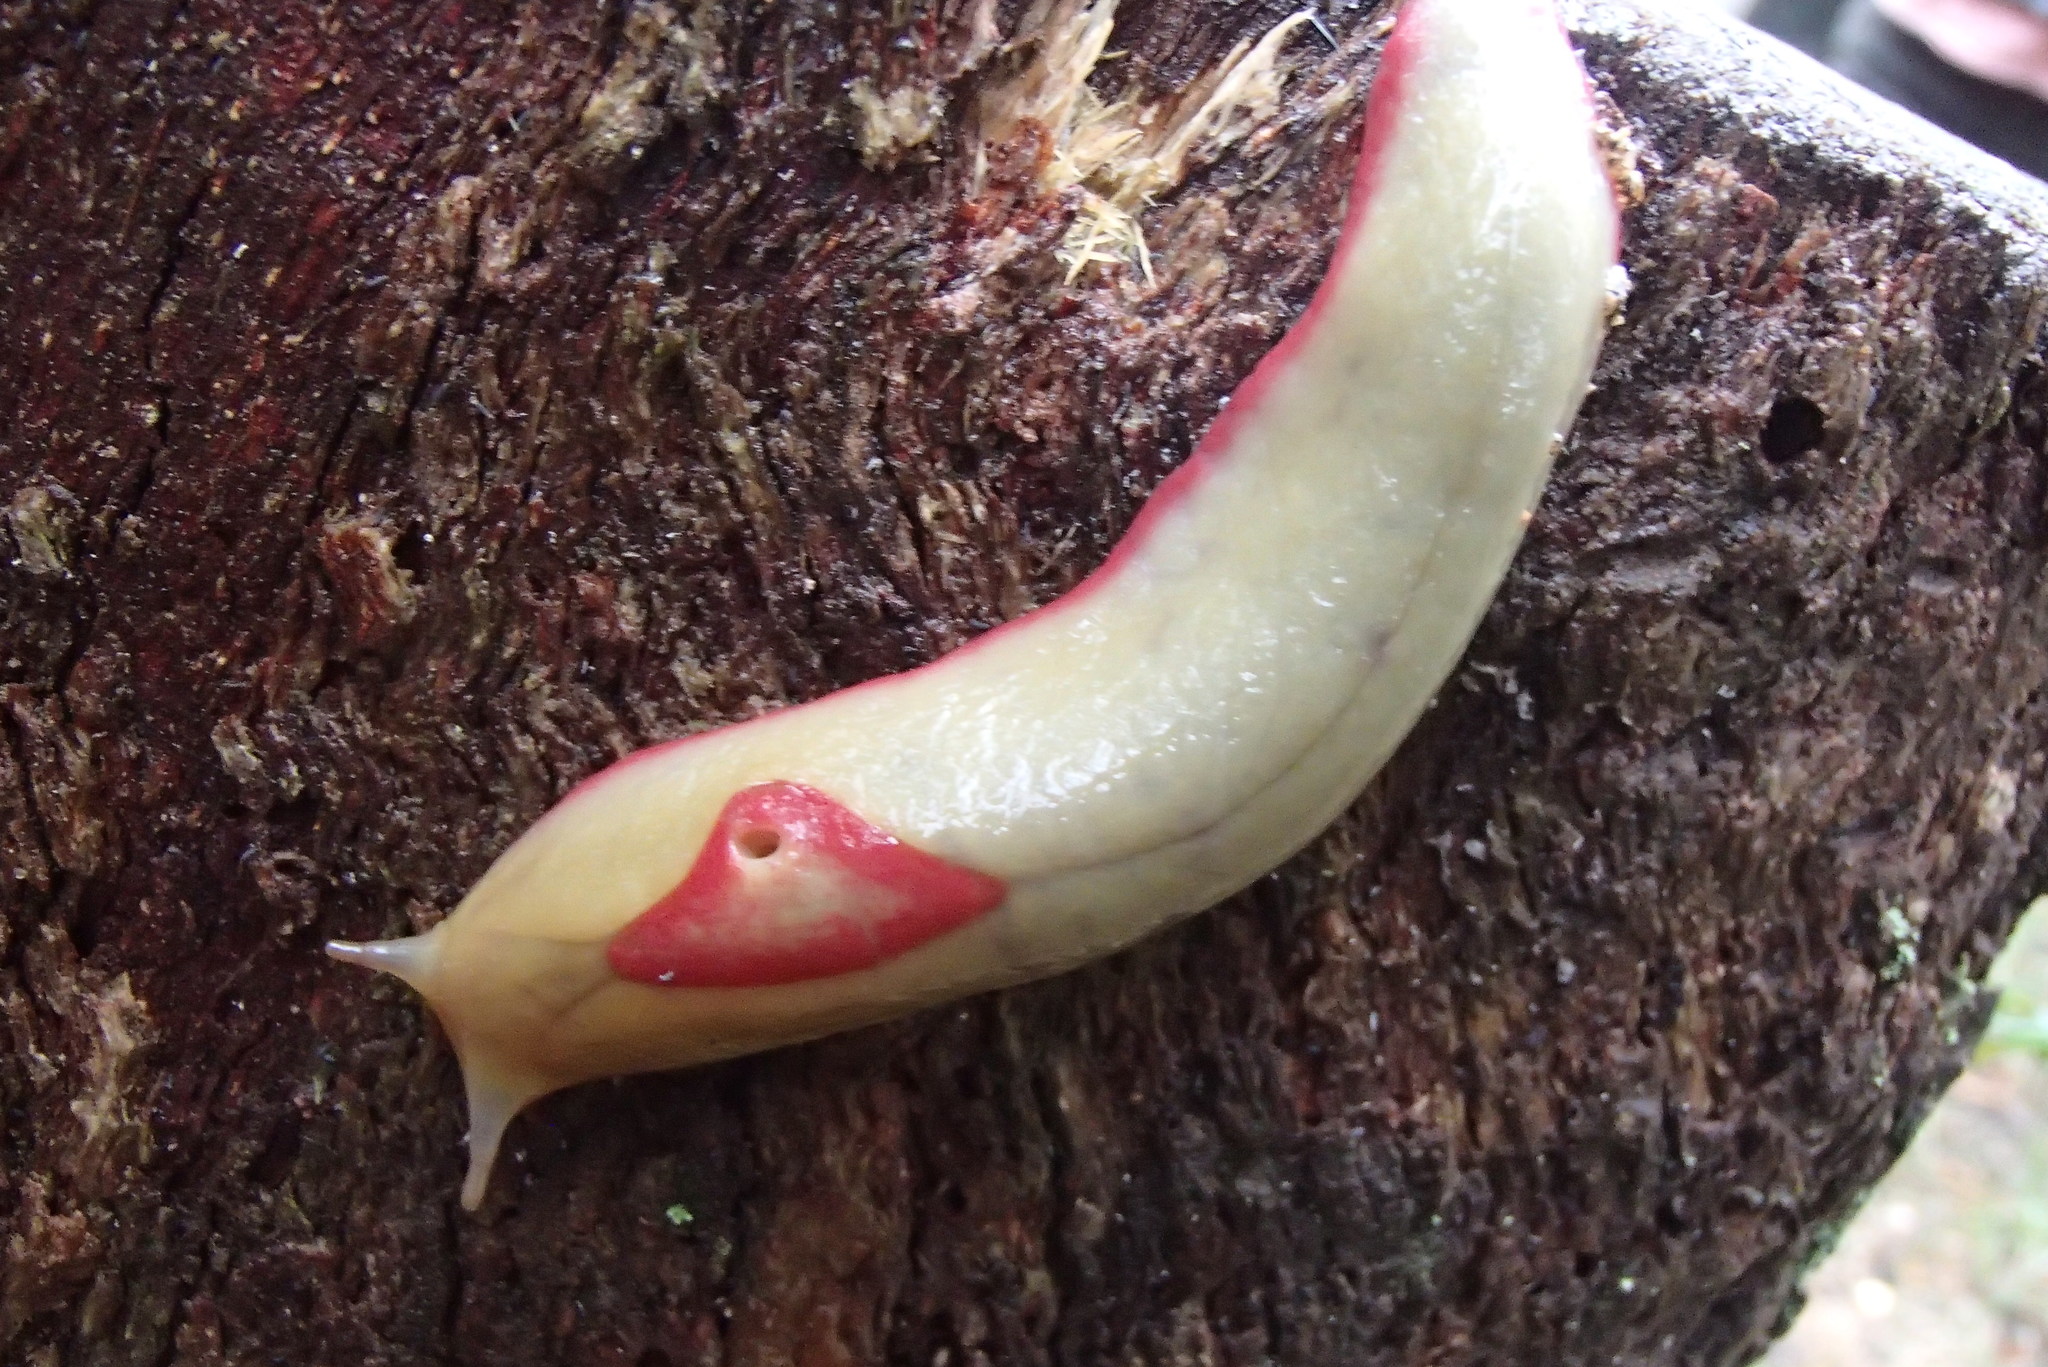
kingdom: Animalia
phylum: Mollusca
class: Gastropoda
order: Stylommatophora
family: Athoracophoridae
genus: Triboniophorus
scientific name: Triboniophorus graeffei
